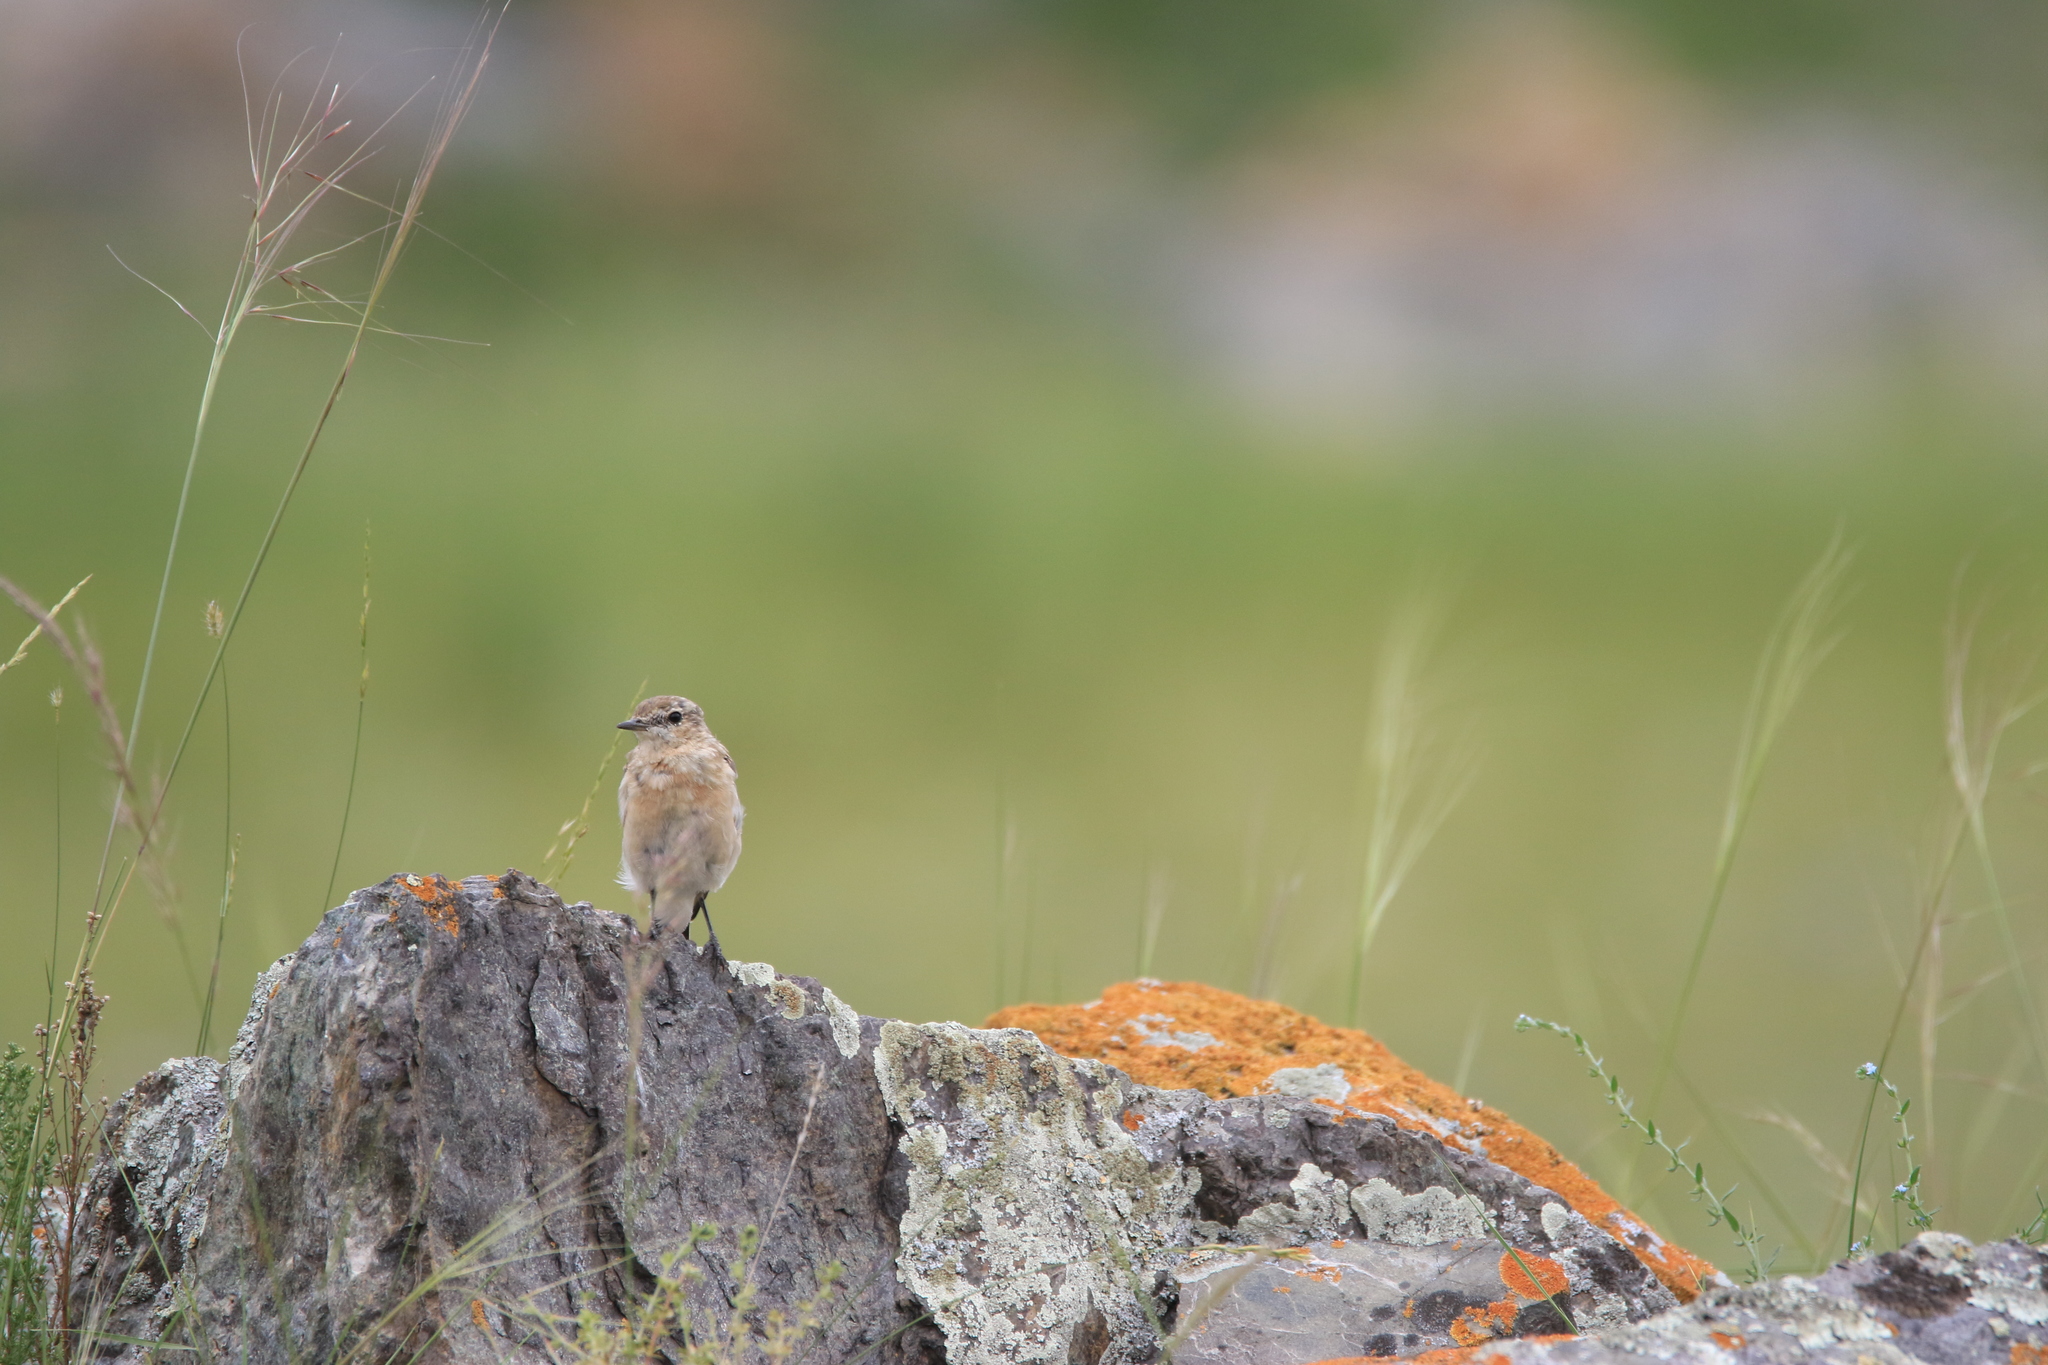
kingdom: Animalia
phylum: Chordata
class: Aves
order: Passeriformes
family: Muscicapidae
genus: Oenanthe
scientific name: Oenanthe oenanthe
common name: Northern wheatear
